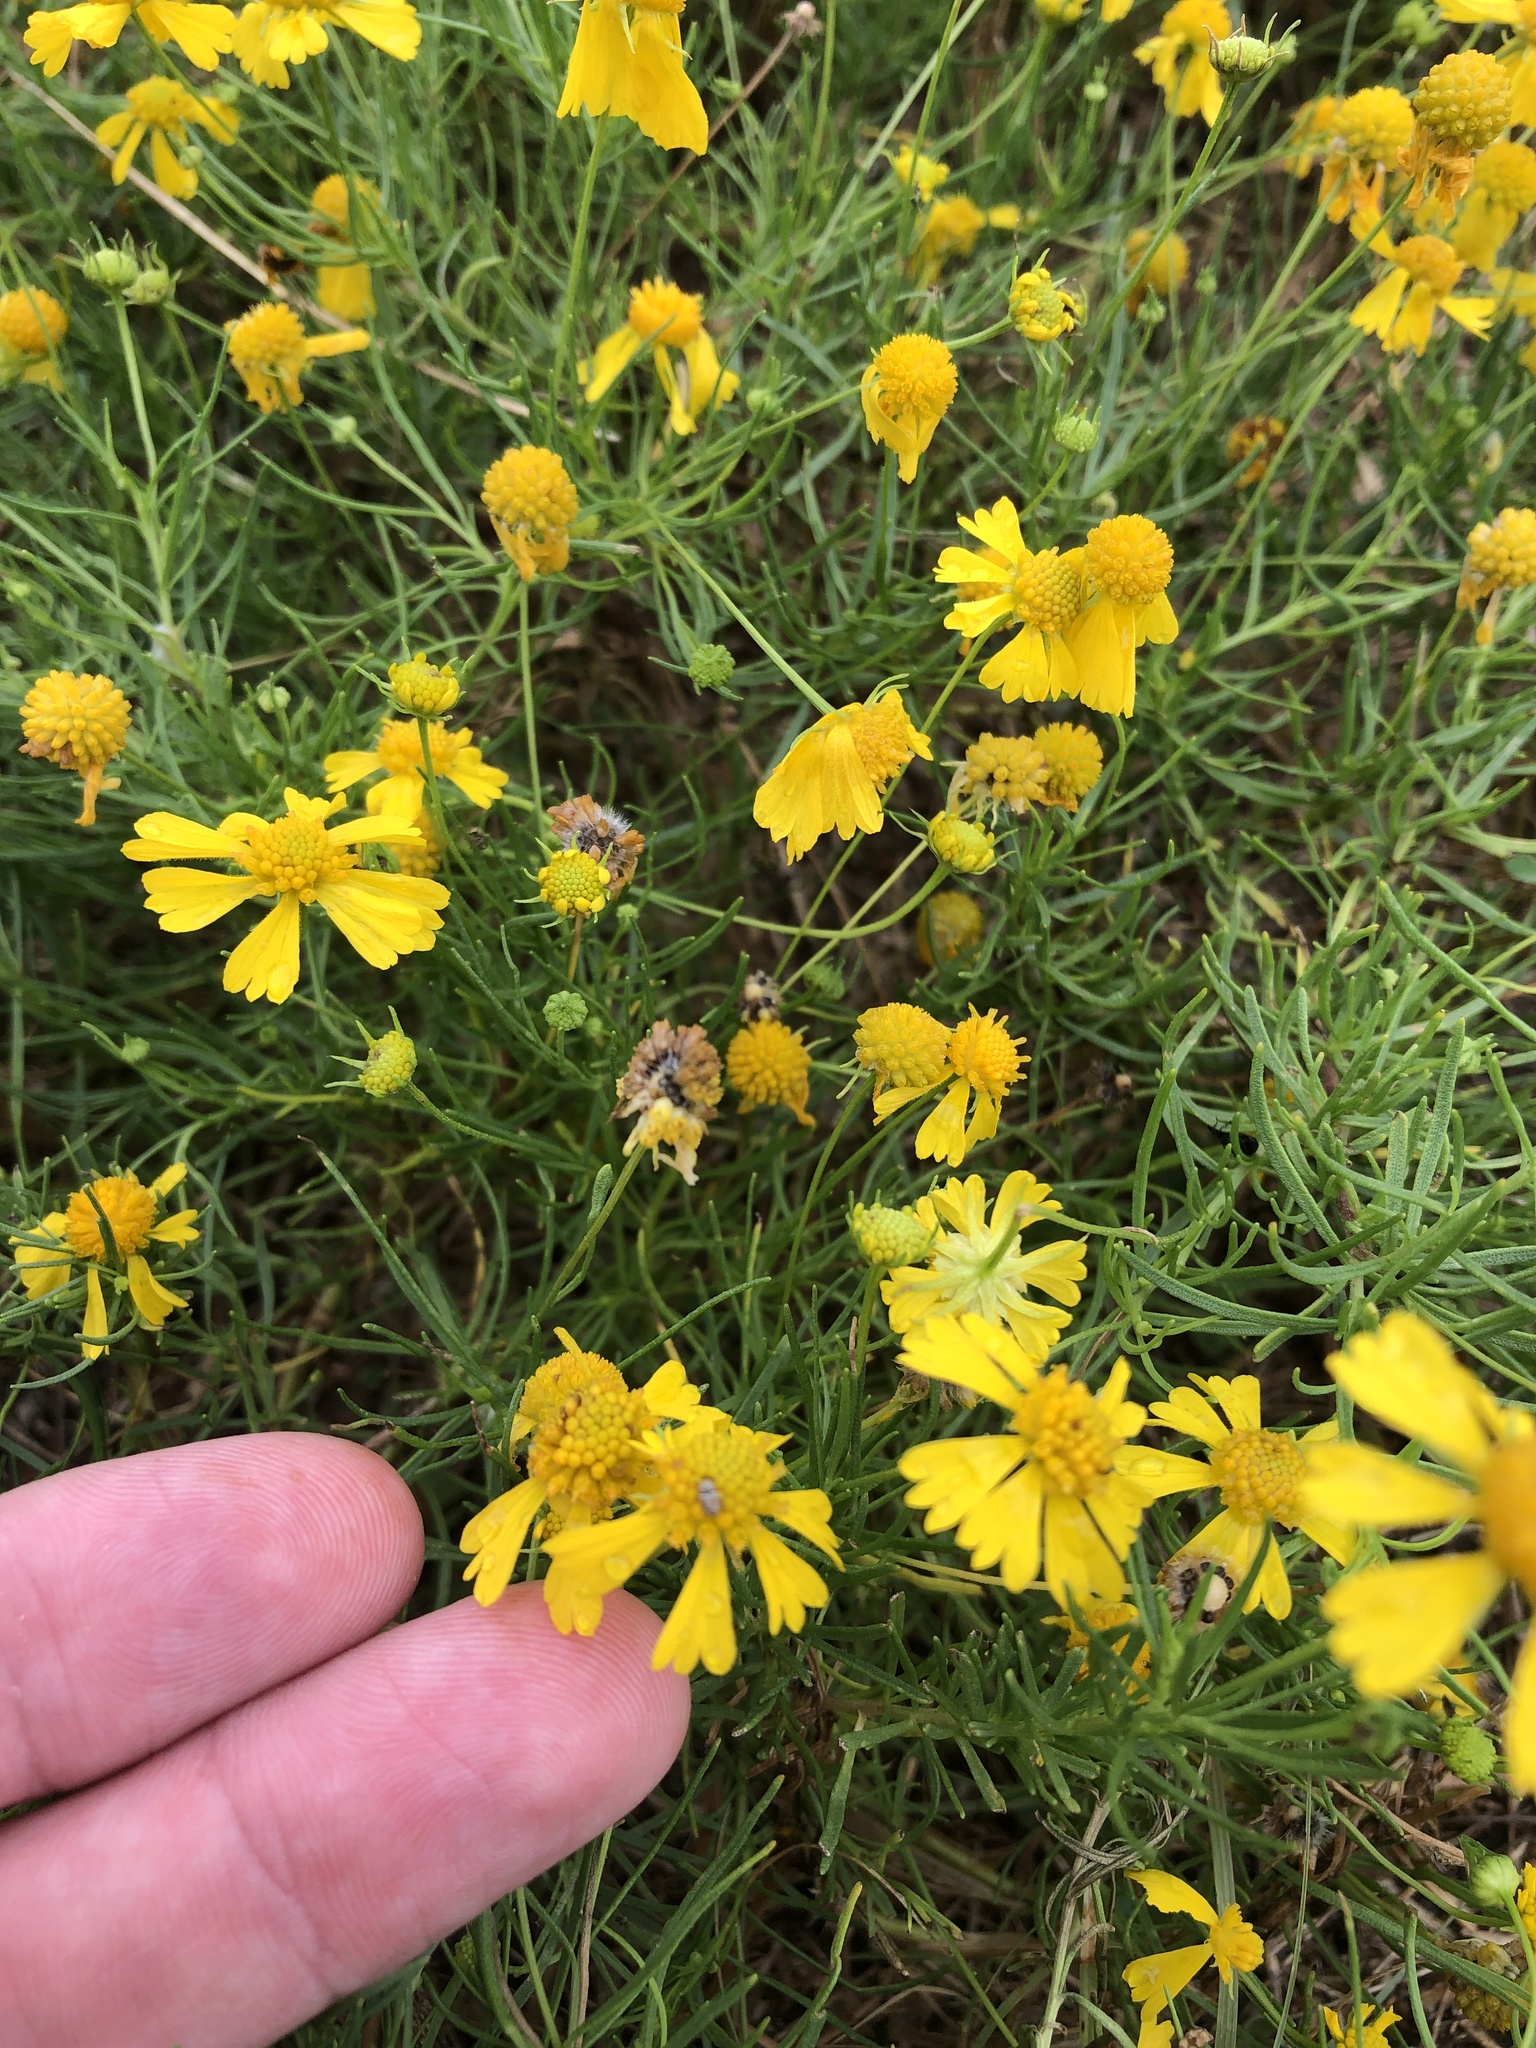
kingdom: Plantae
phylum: Tracheophyta
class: Magnoliopsida
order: Asterales
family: Asteraceae
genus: Helenium
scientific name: Helenium amarum
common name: Bitter sneezeweed
